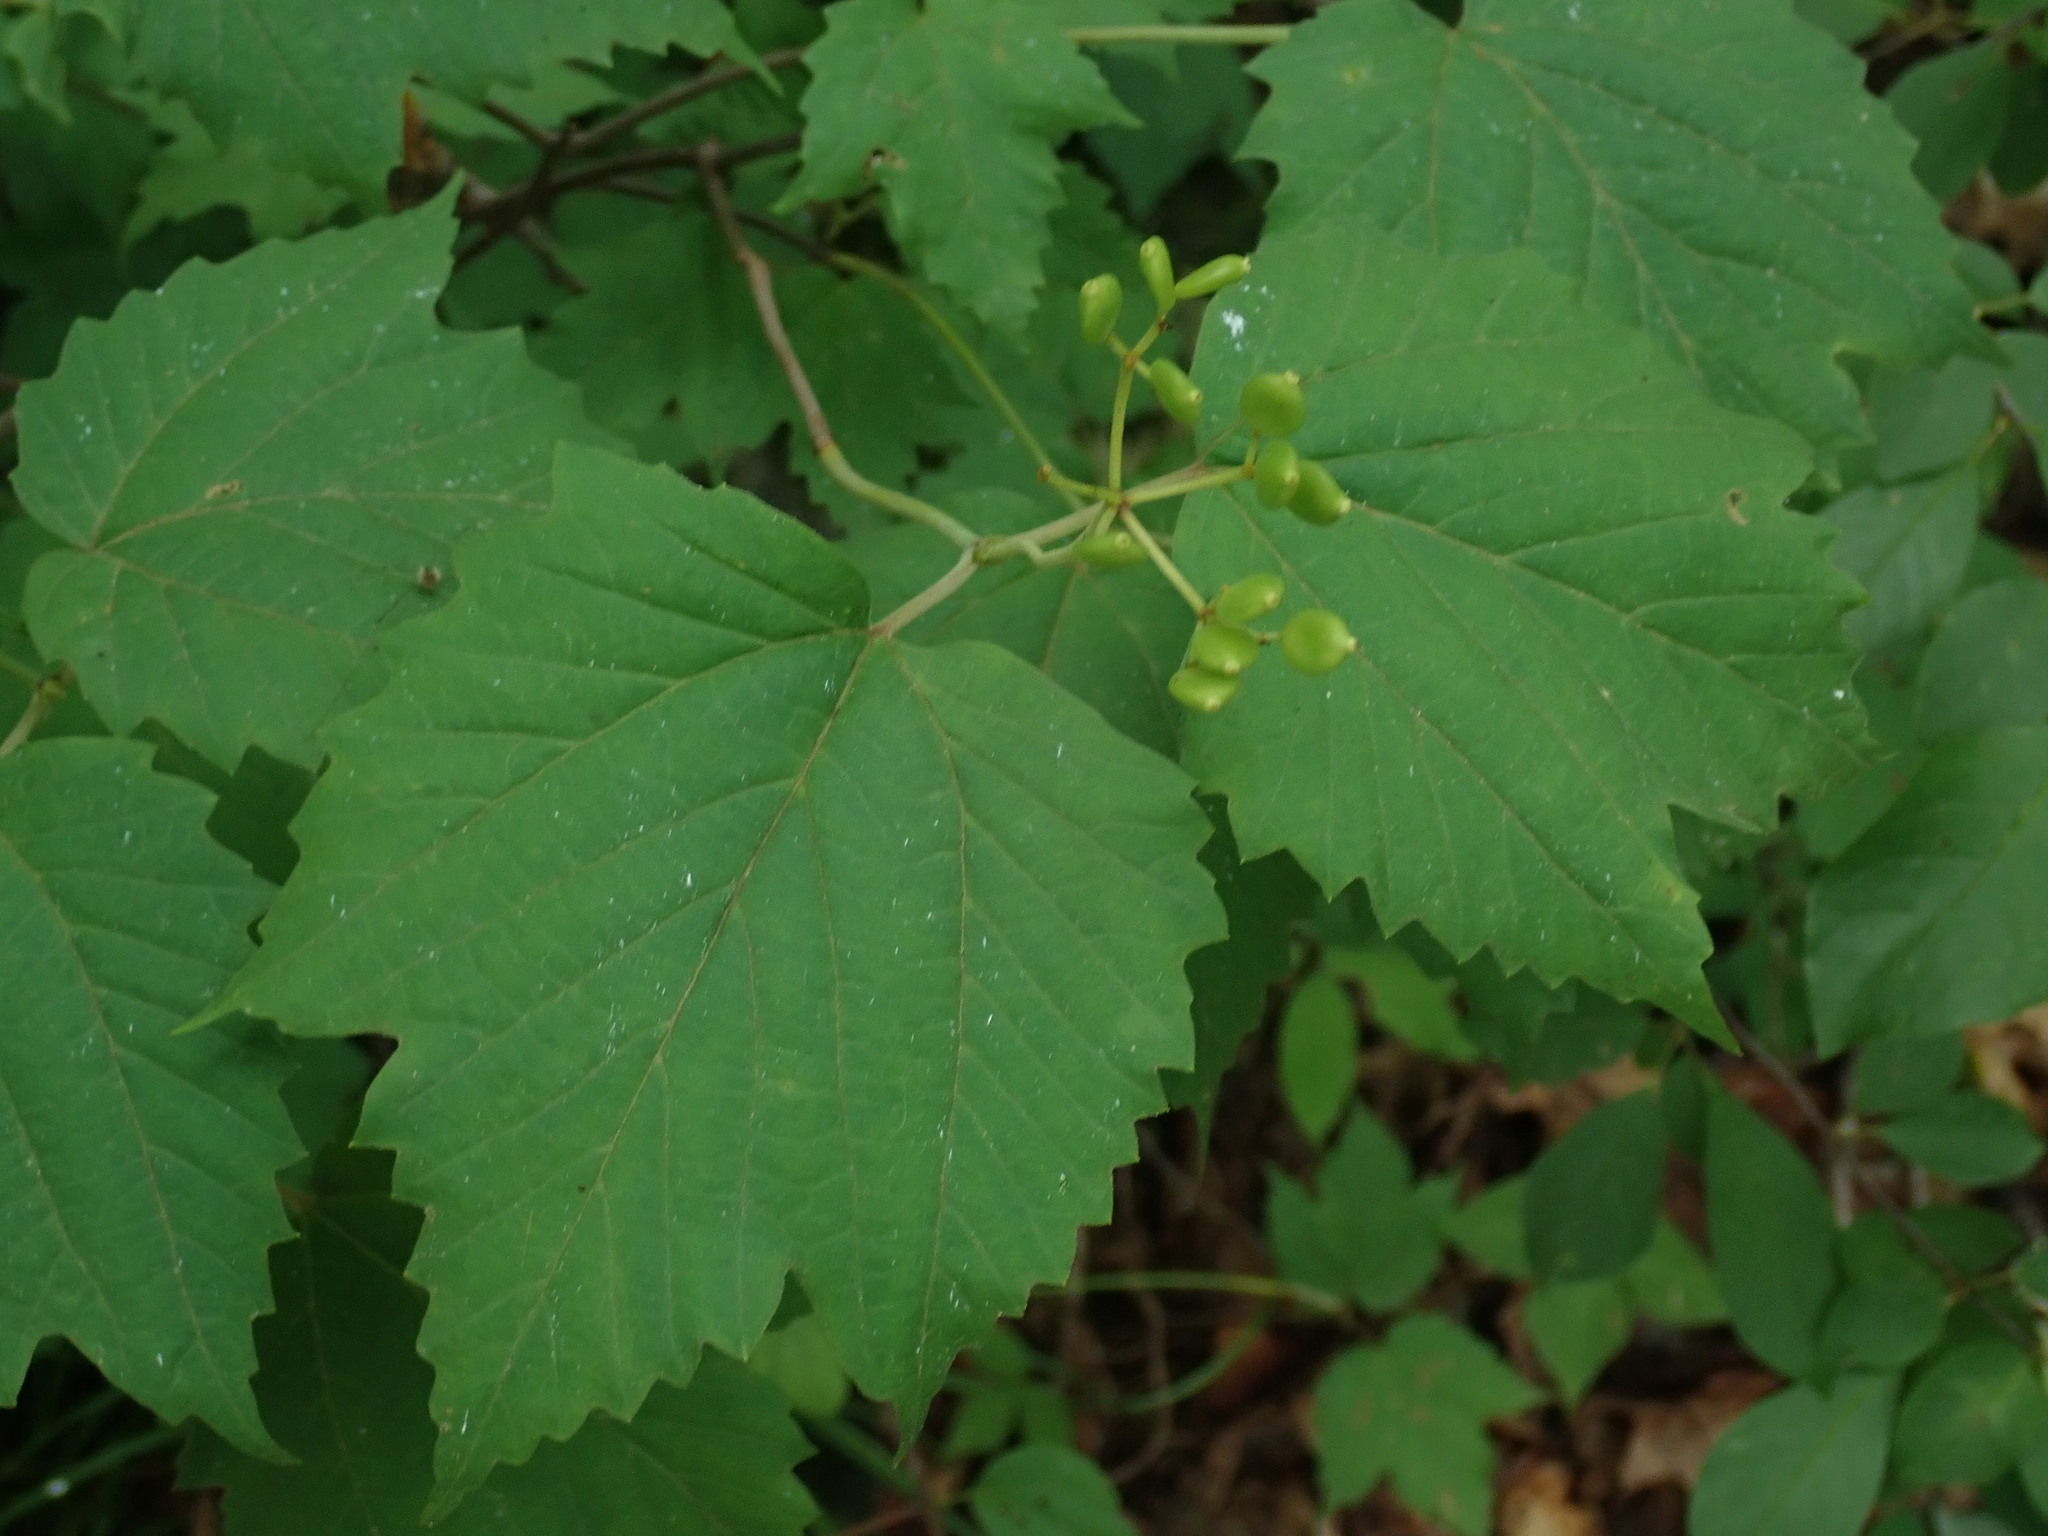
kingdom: Plantae
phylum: Tracheophyta
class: Magnoliopsida
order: Dipsacales
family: Viburnaceae
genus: Viburnum
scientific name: Viburnum acerifolium
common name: Dockmackie
